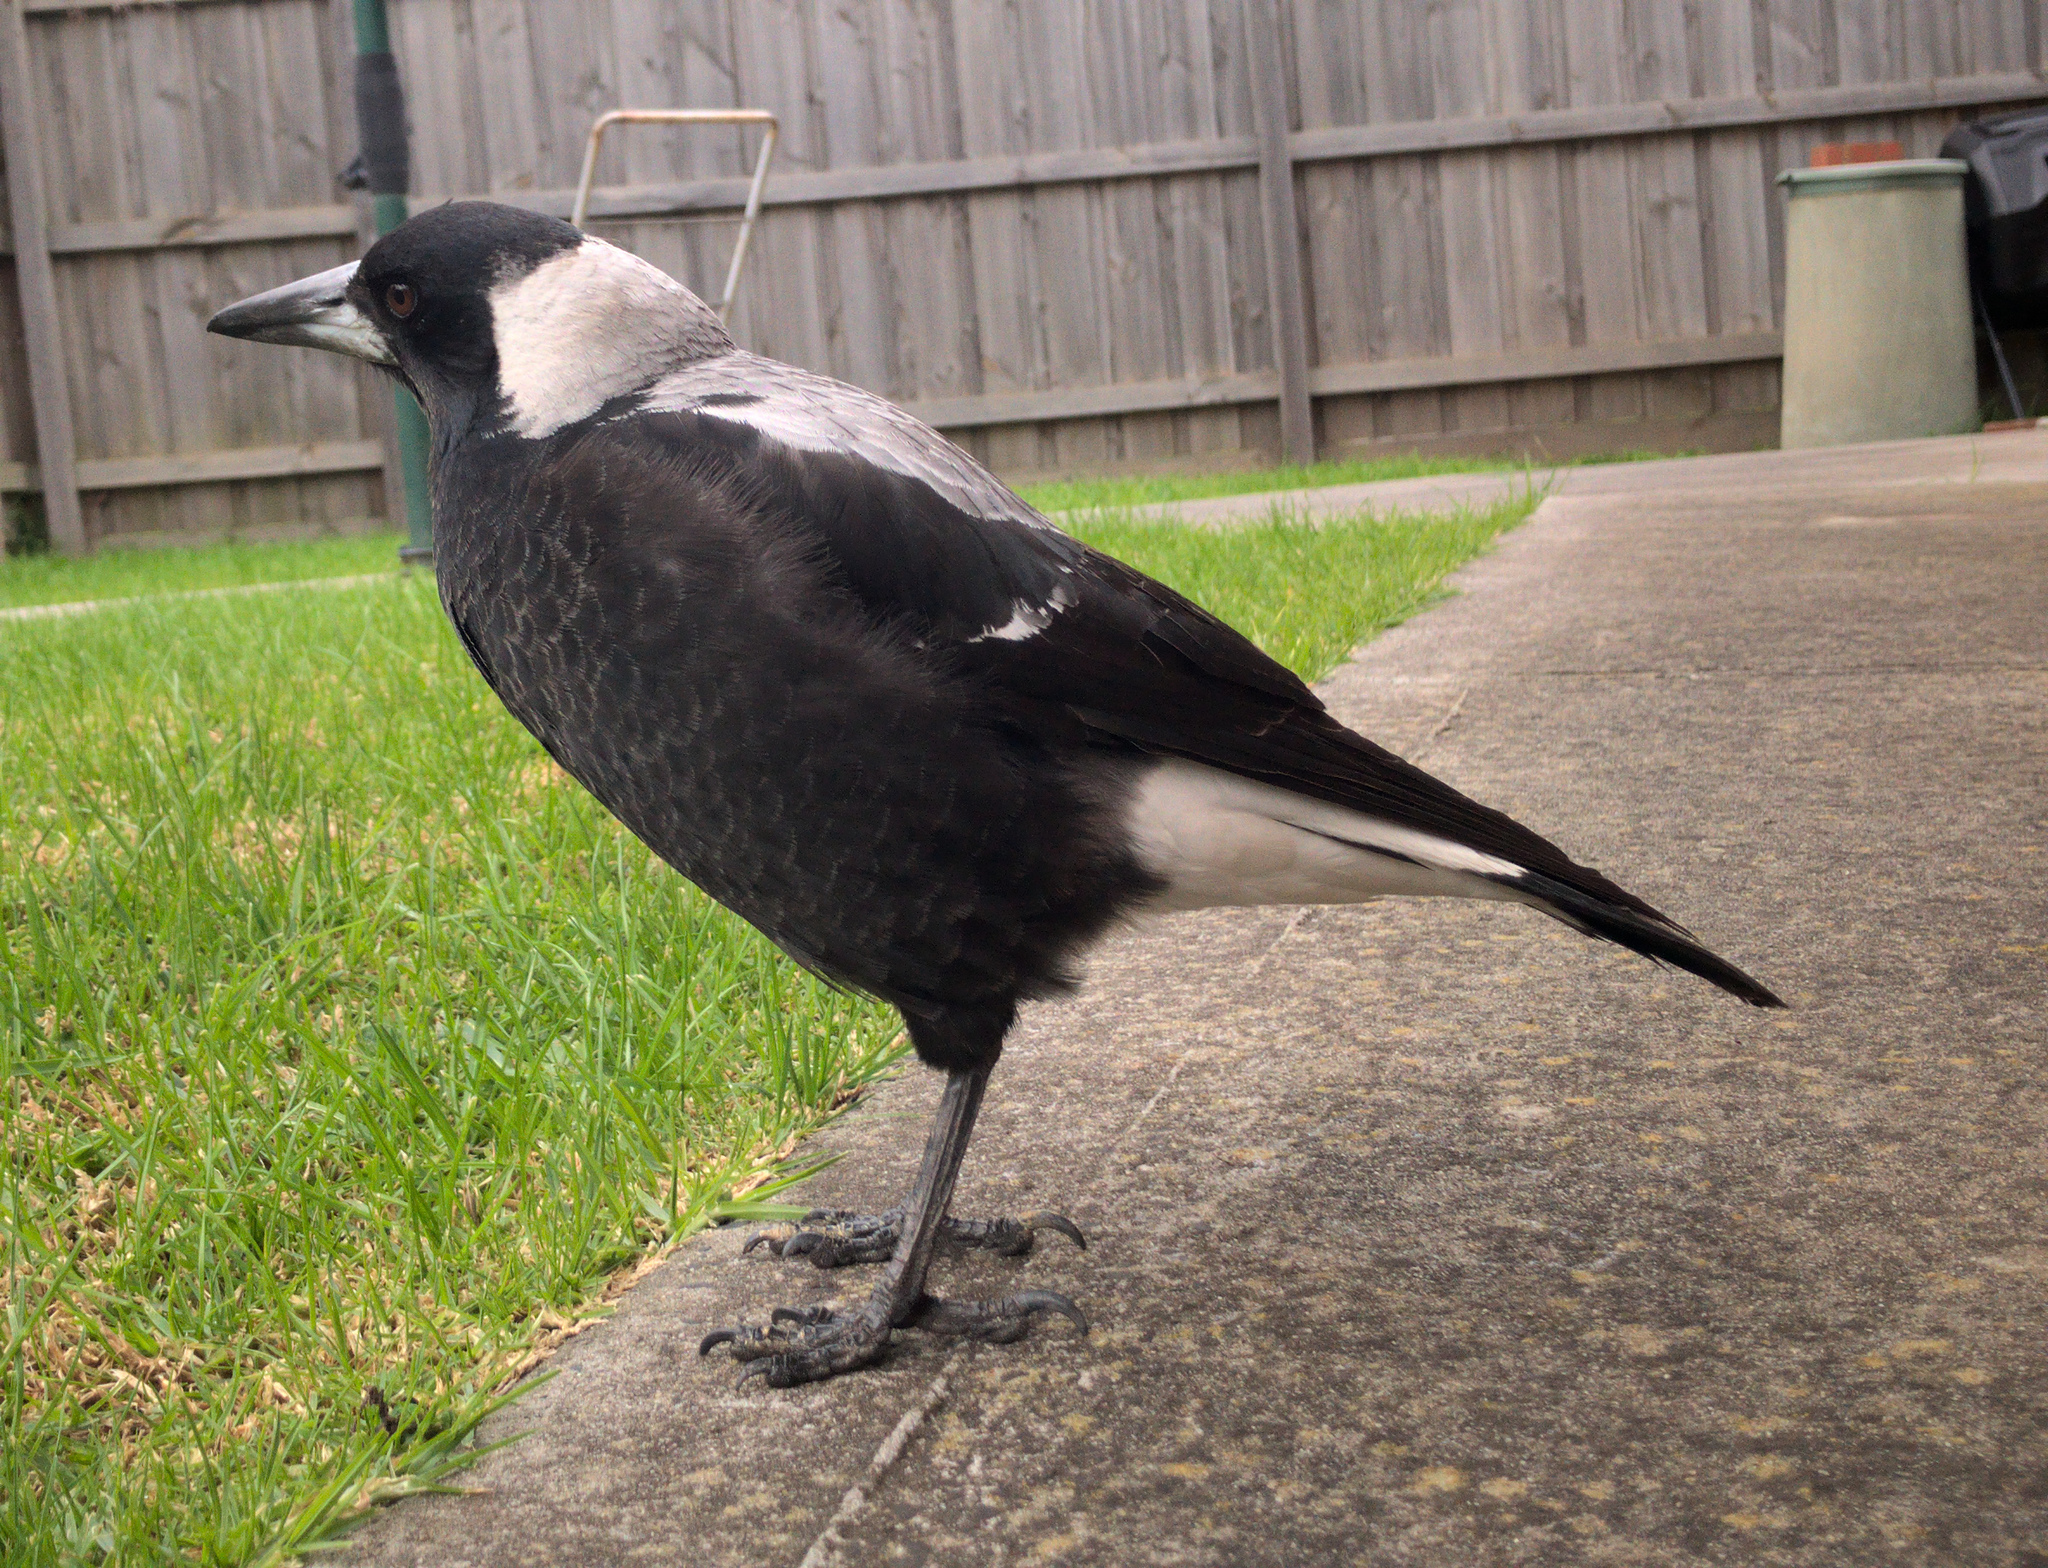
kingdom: Animalia
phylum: Chordata
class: Aves
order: Passeriformes
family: Cracticidae
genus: Gymnorhina
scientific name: Gymnorhina tibicen
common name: Australian magpie
